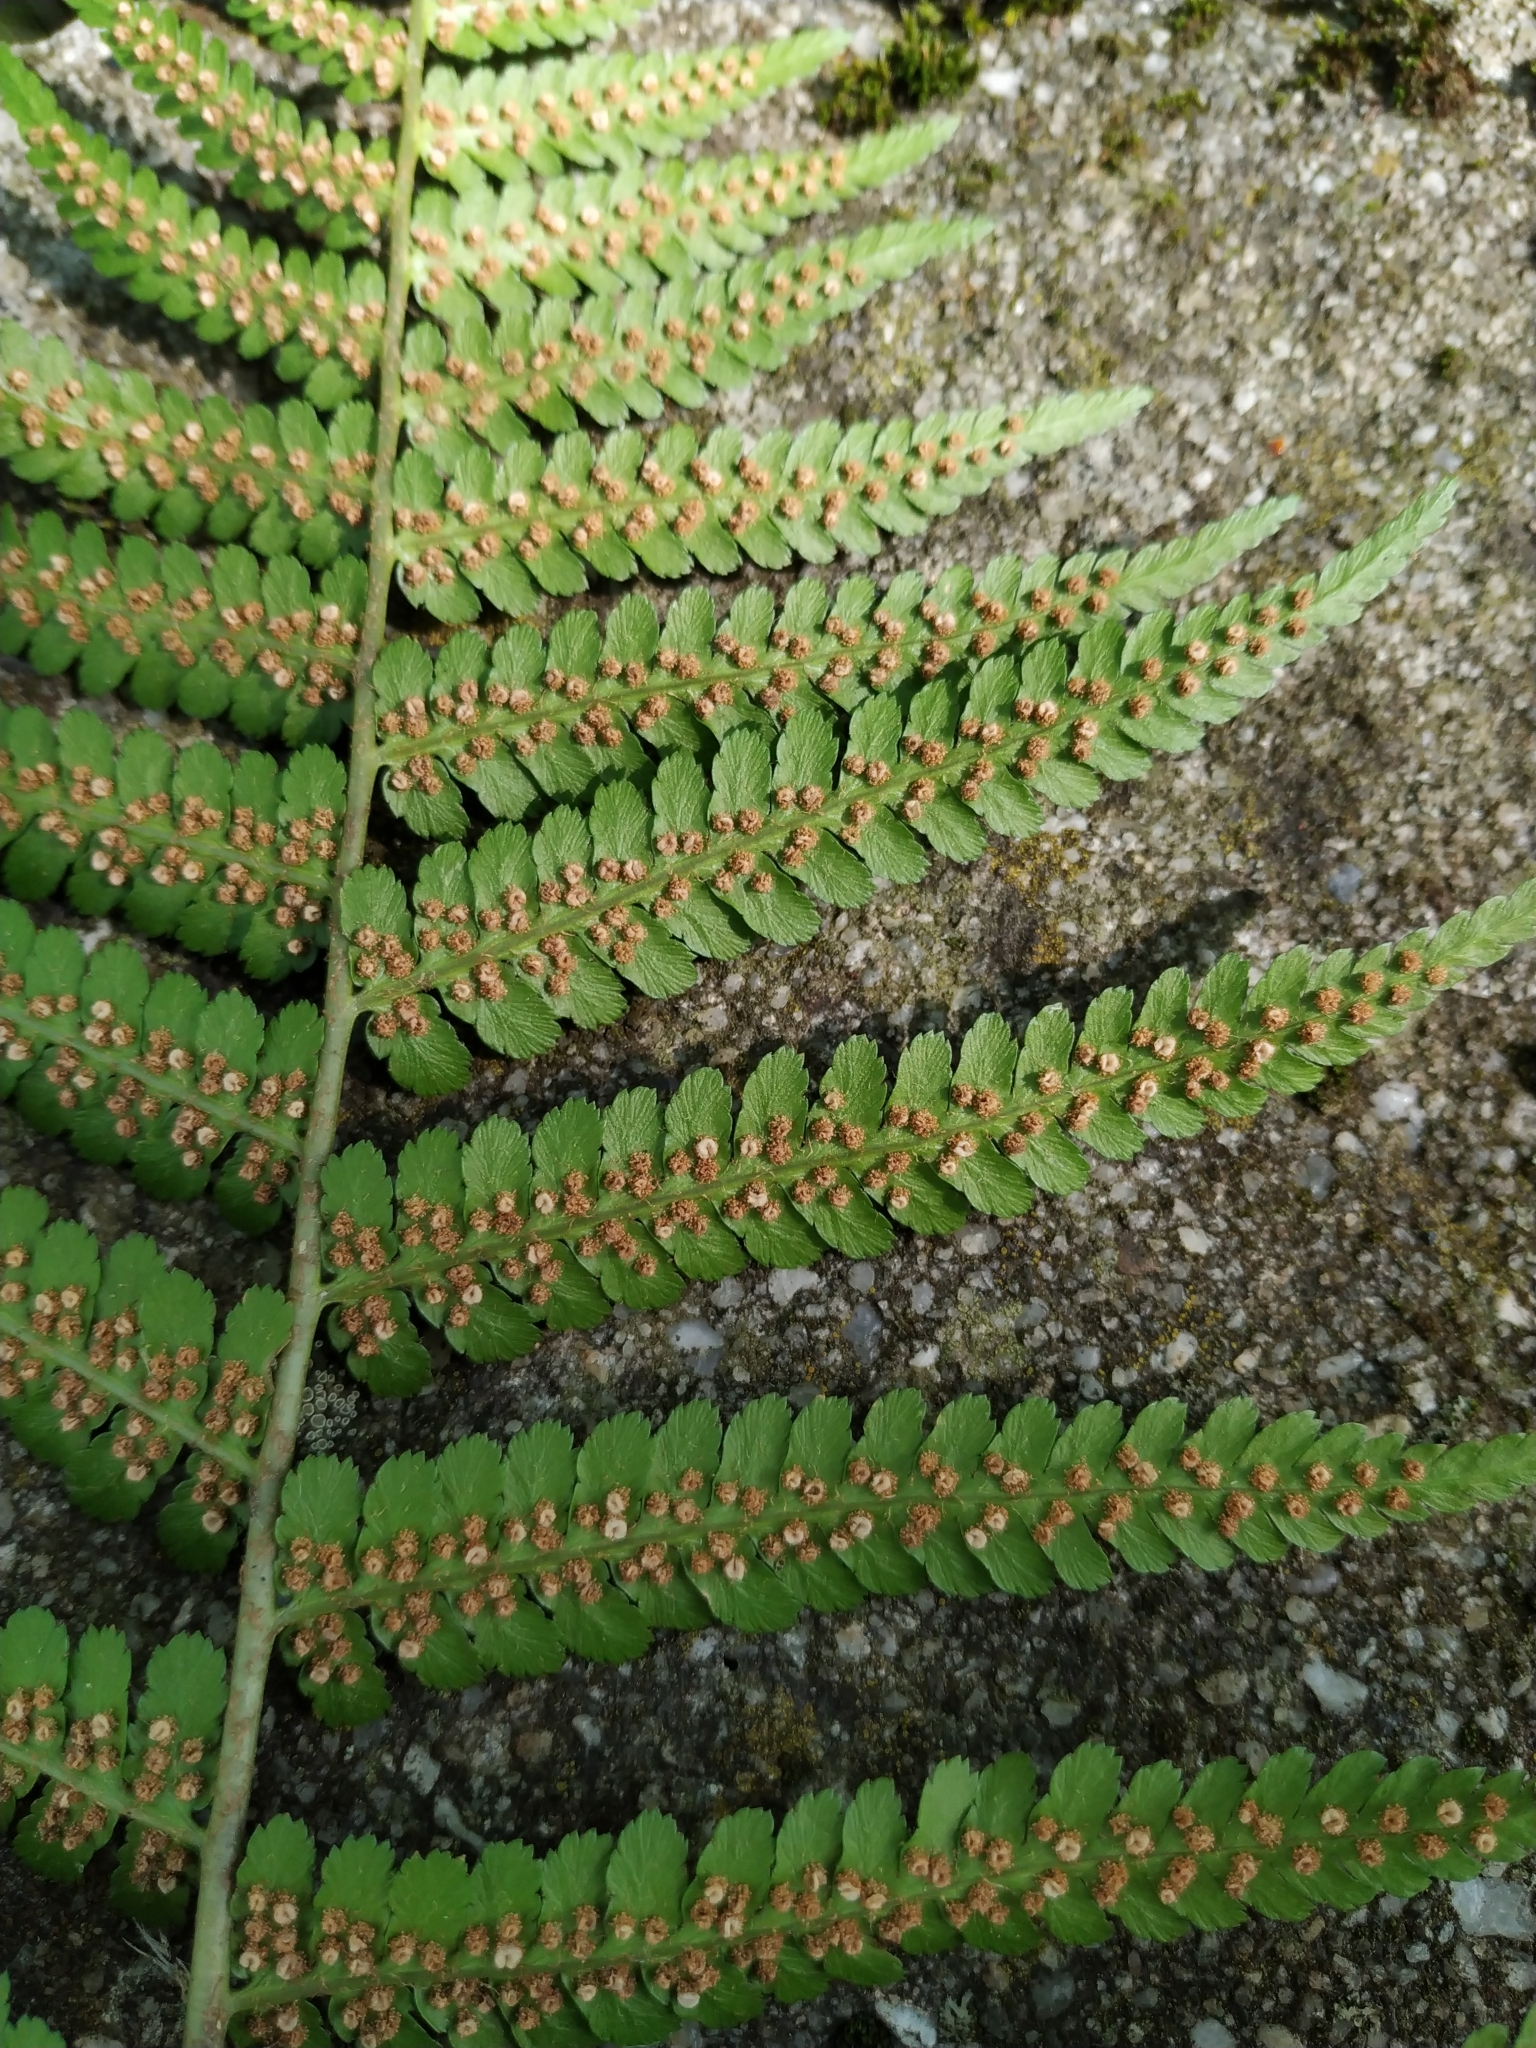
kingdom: Plantae
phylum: Tracheophyta
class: Polypodiopsida
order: Polypodiales
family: Dryopteridaceae
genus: Dryopteris
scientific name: Dryopteris filix-mas
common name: Male fern
